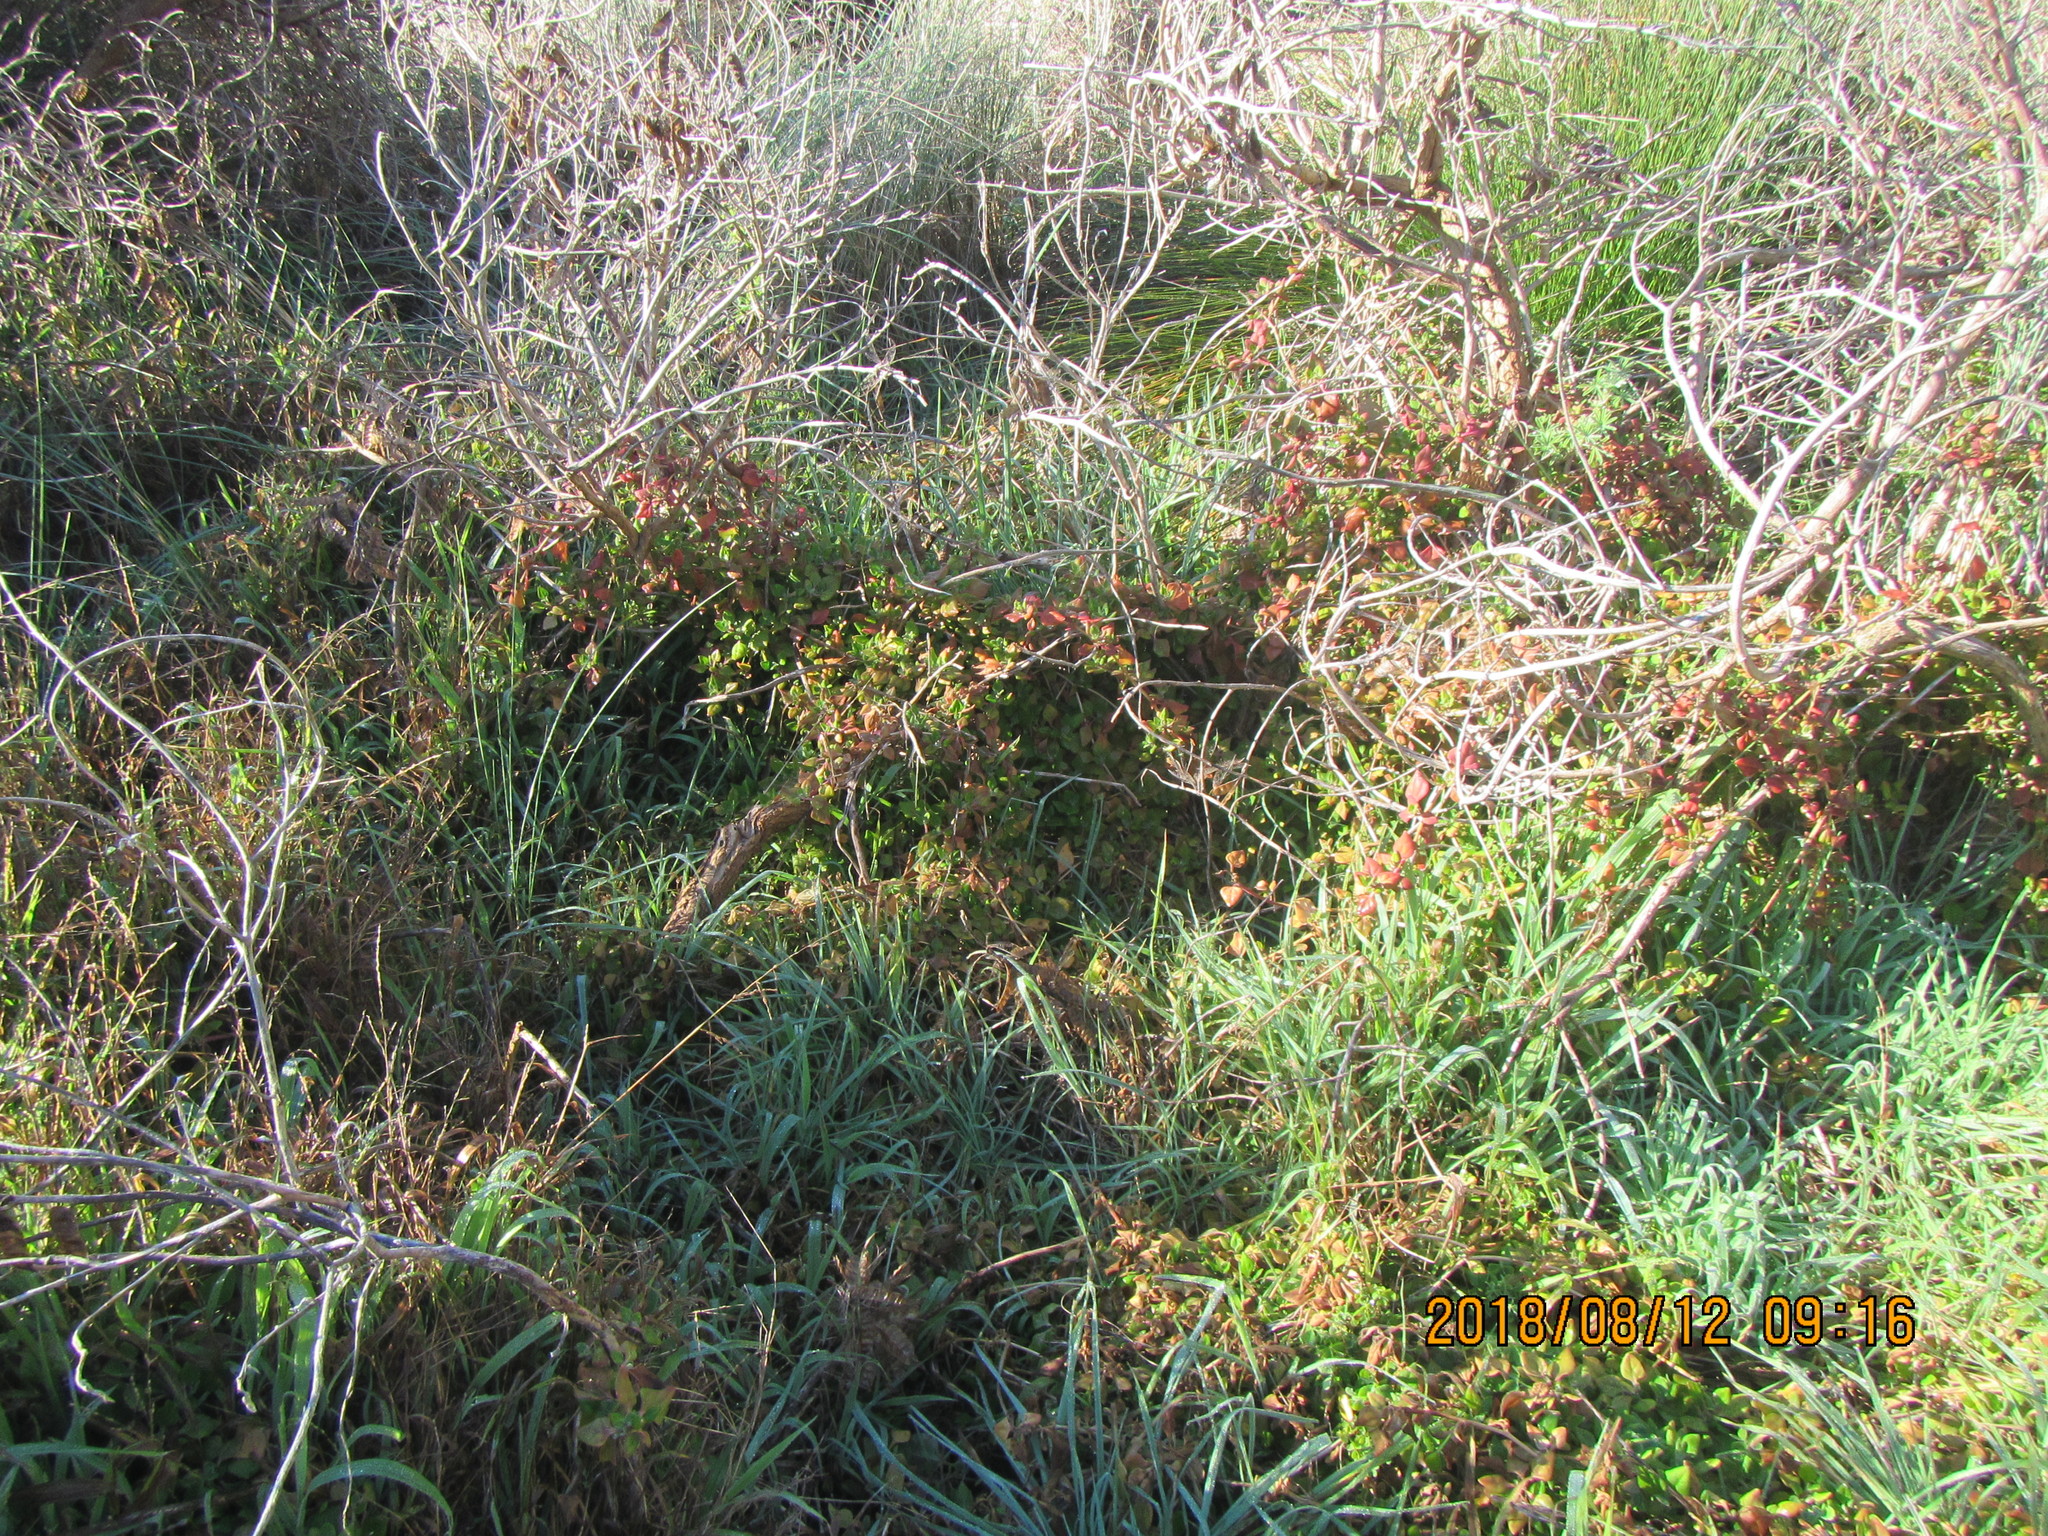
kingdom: Plantae
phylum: Tracheophyta
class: Magnoliopsida
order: Caryophyllales
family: Aizoaceae
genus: Tetragonia
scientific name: Tetragonia implexicoma
